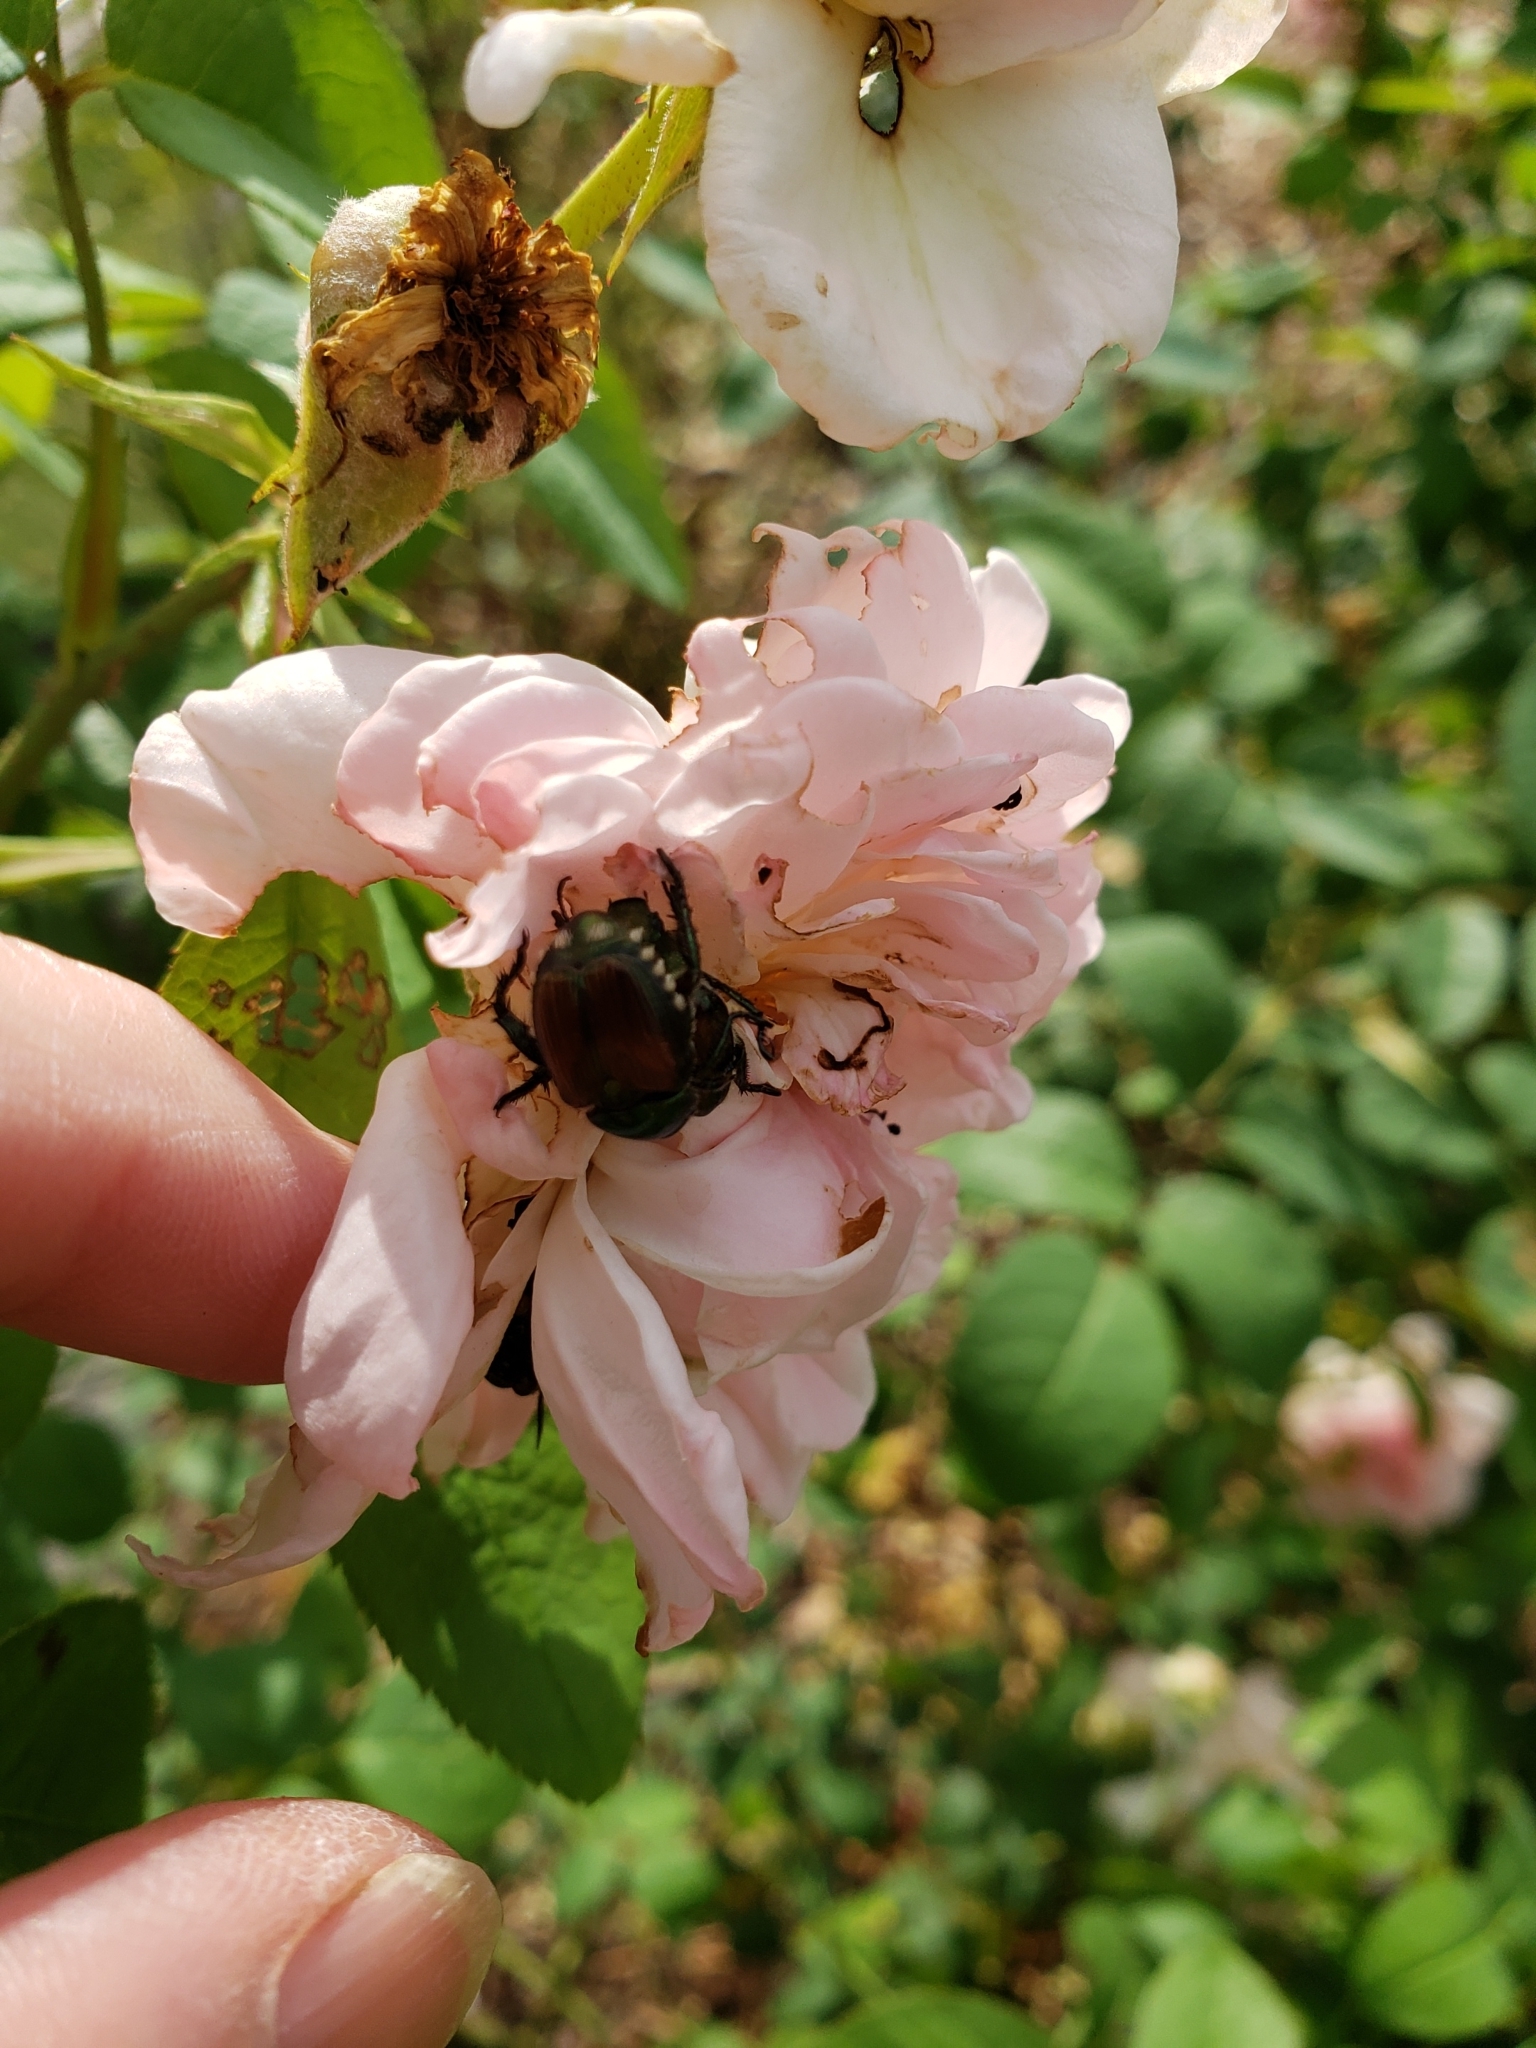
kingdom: Animalia
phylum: Arthropoda
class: Insecta
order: Coleoptera
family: Scarabaeidae
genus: Popillia
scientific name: Popillia japonica
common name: Japanese beetle
